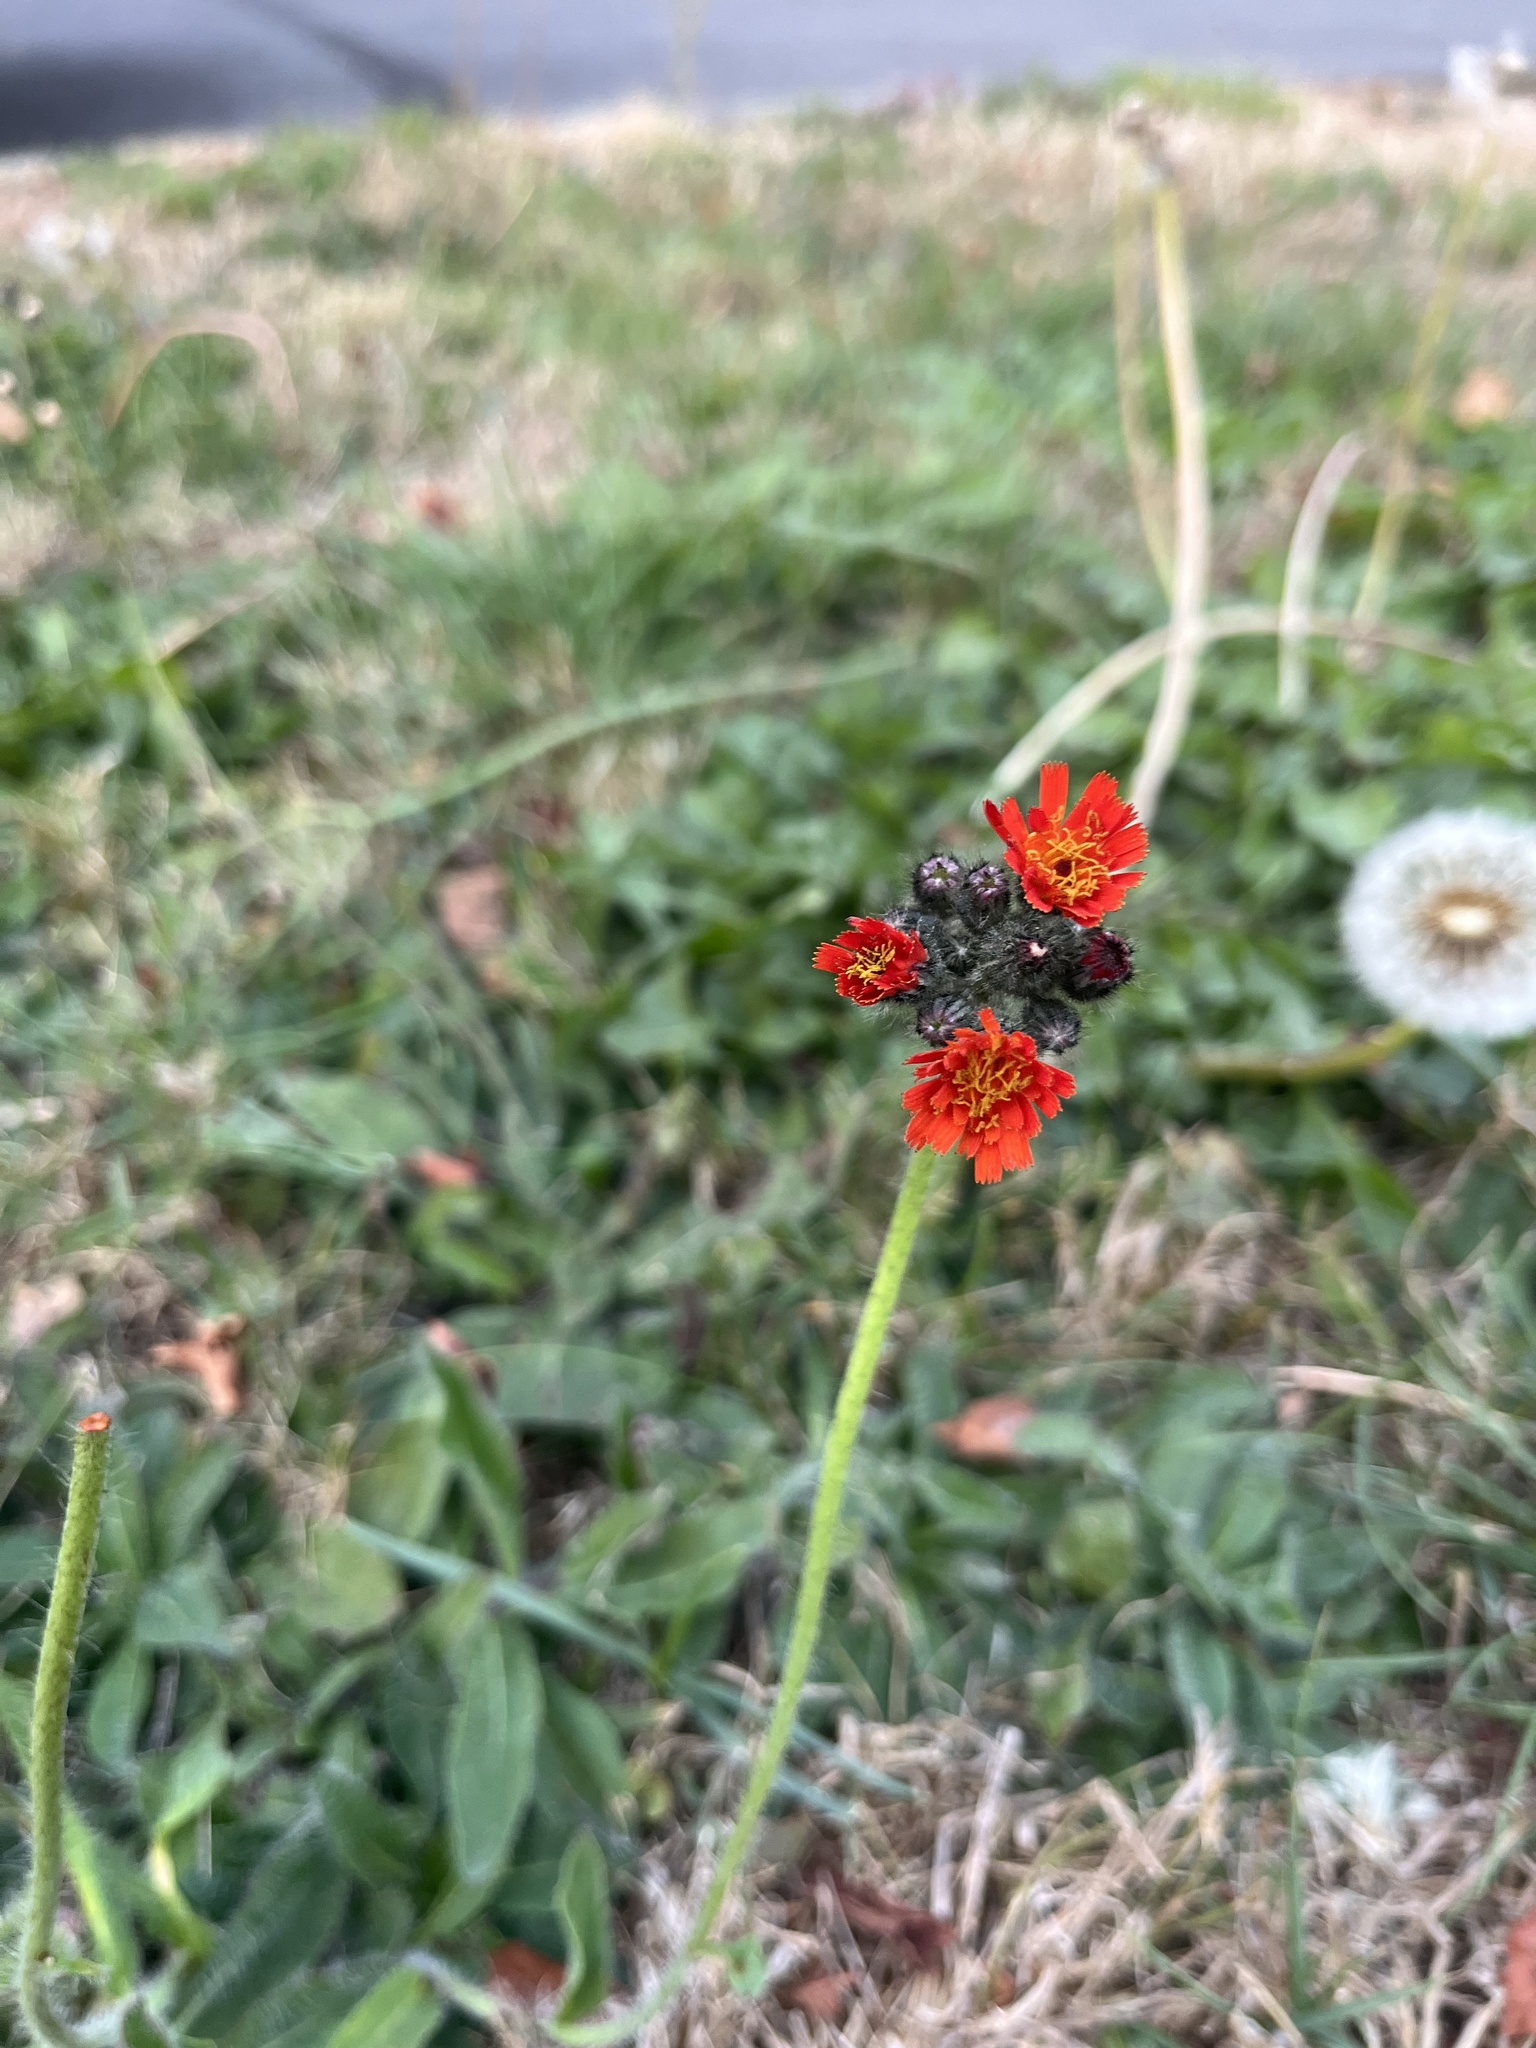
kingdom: Plantae
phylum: Tracheophyta
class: Magnoliopsida
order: Asterales
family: Asteraceae
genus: Pilosella
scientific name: Pilosella aurantiaca
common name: Fox-and-cubs
